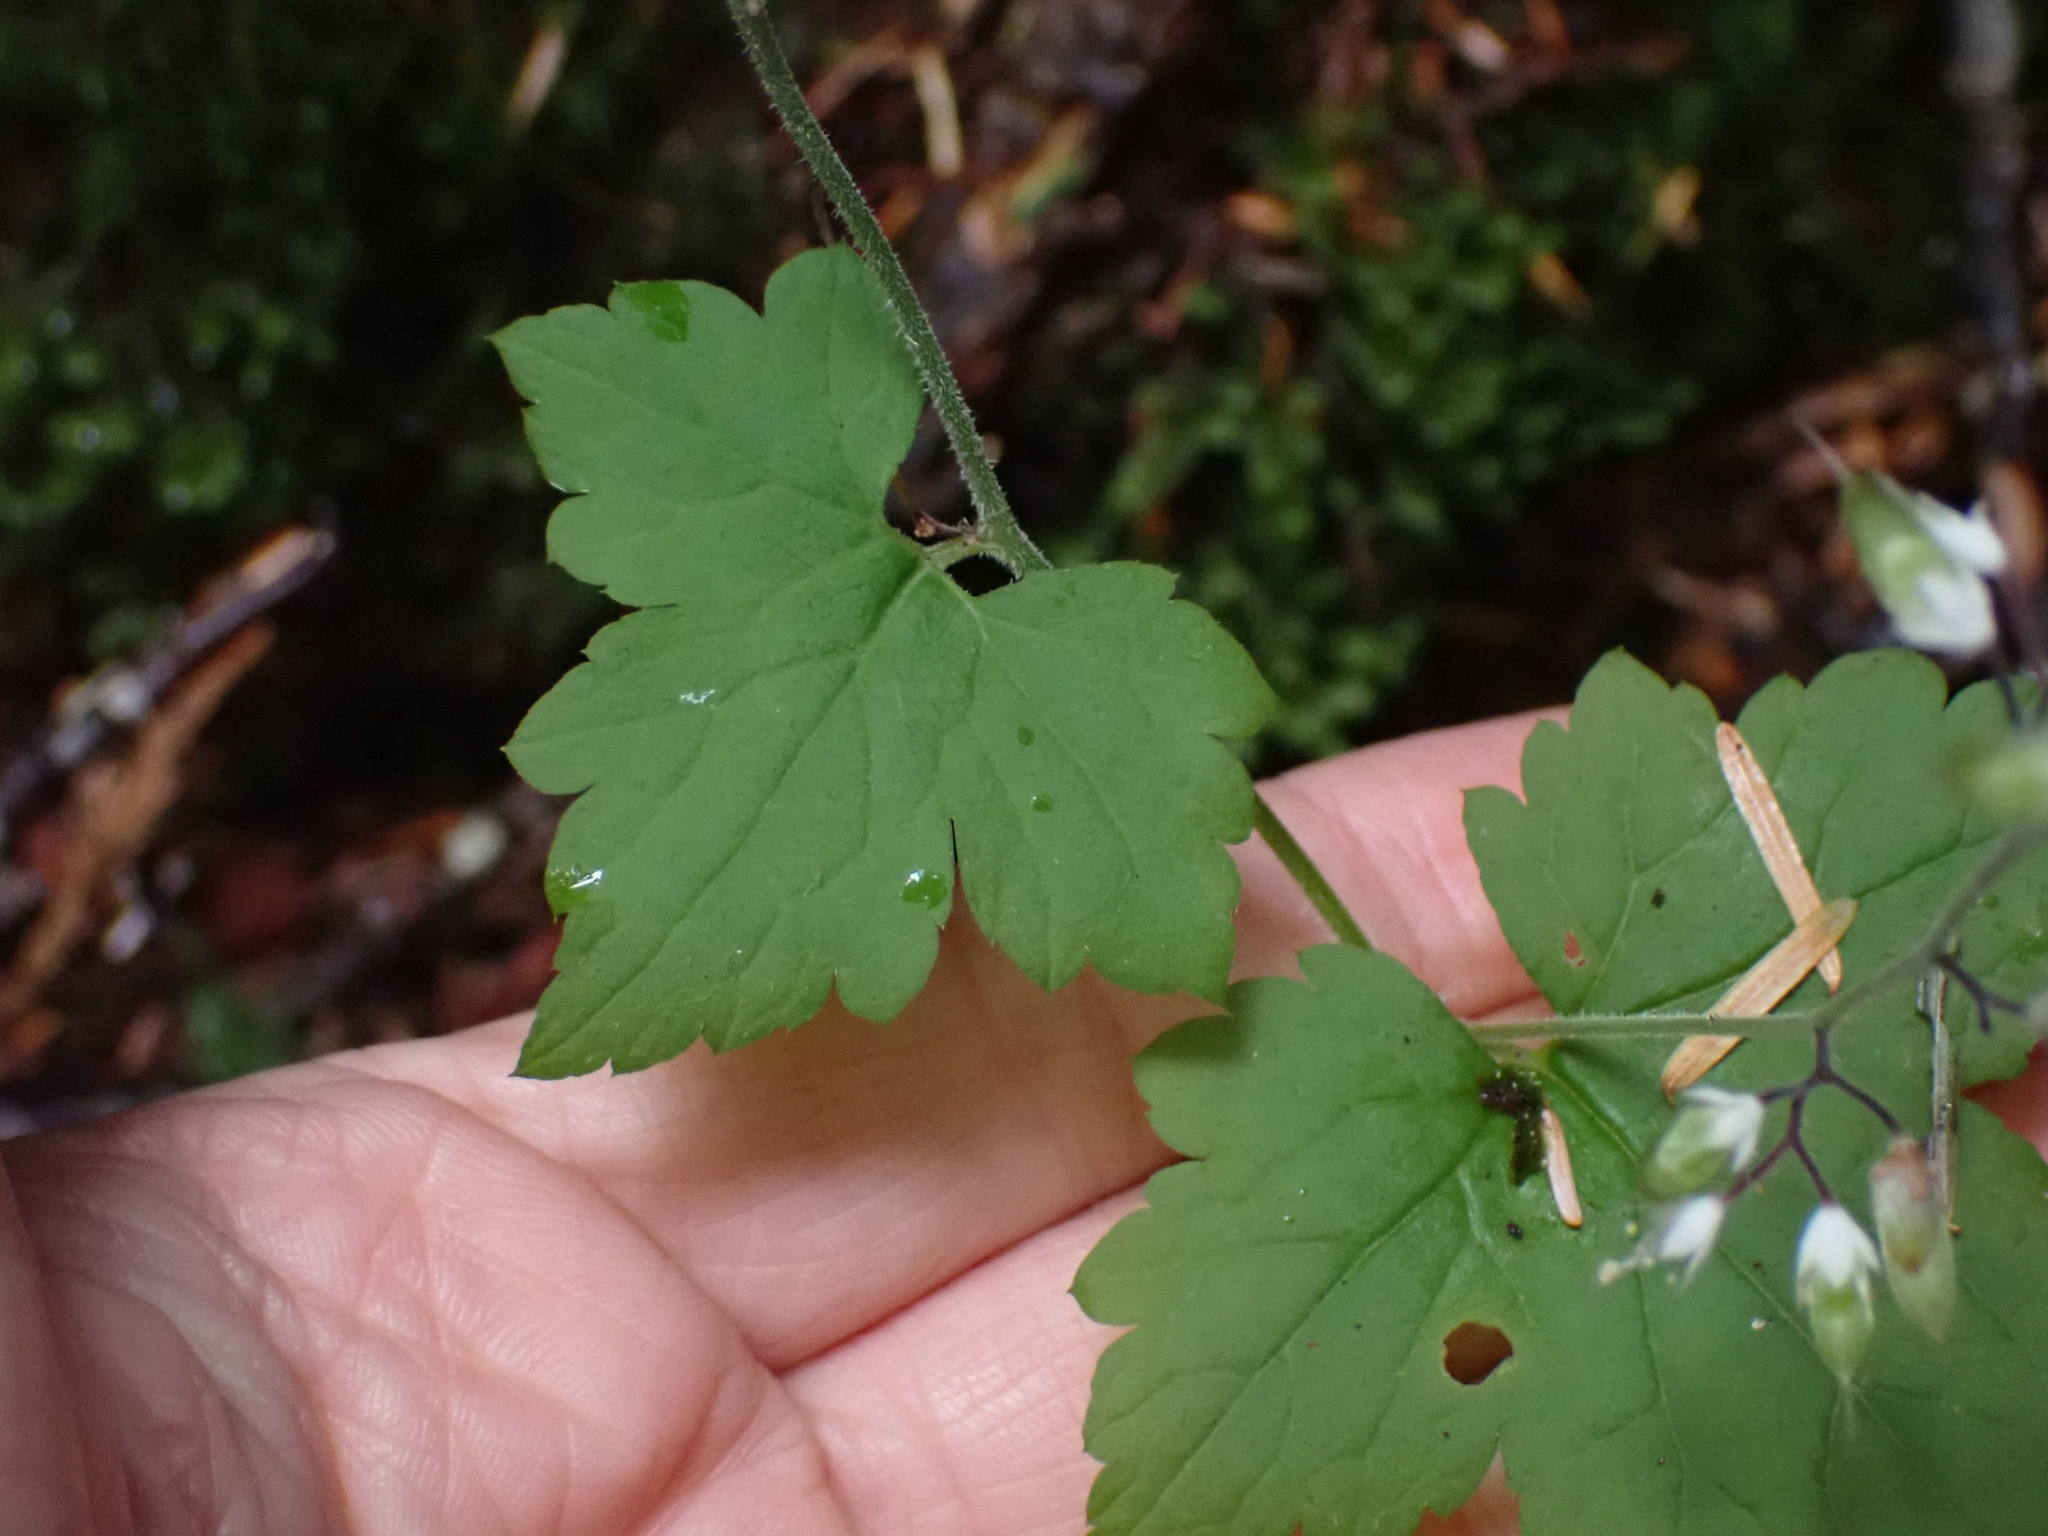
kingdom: Plantae
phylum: Tracheophyta
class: Magnoliopsida
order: Saxifragales
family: Saxifragaceae
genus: Tiarella
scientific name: Tiarella trifoliata
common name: Sugar-scoop
